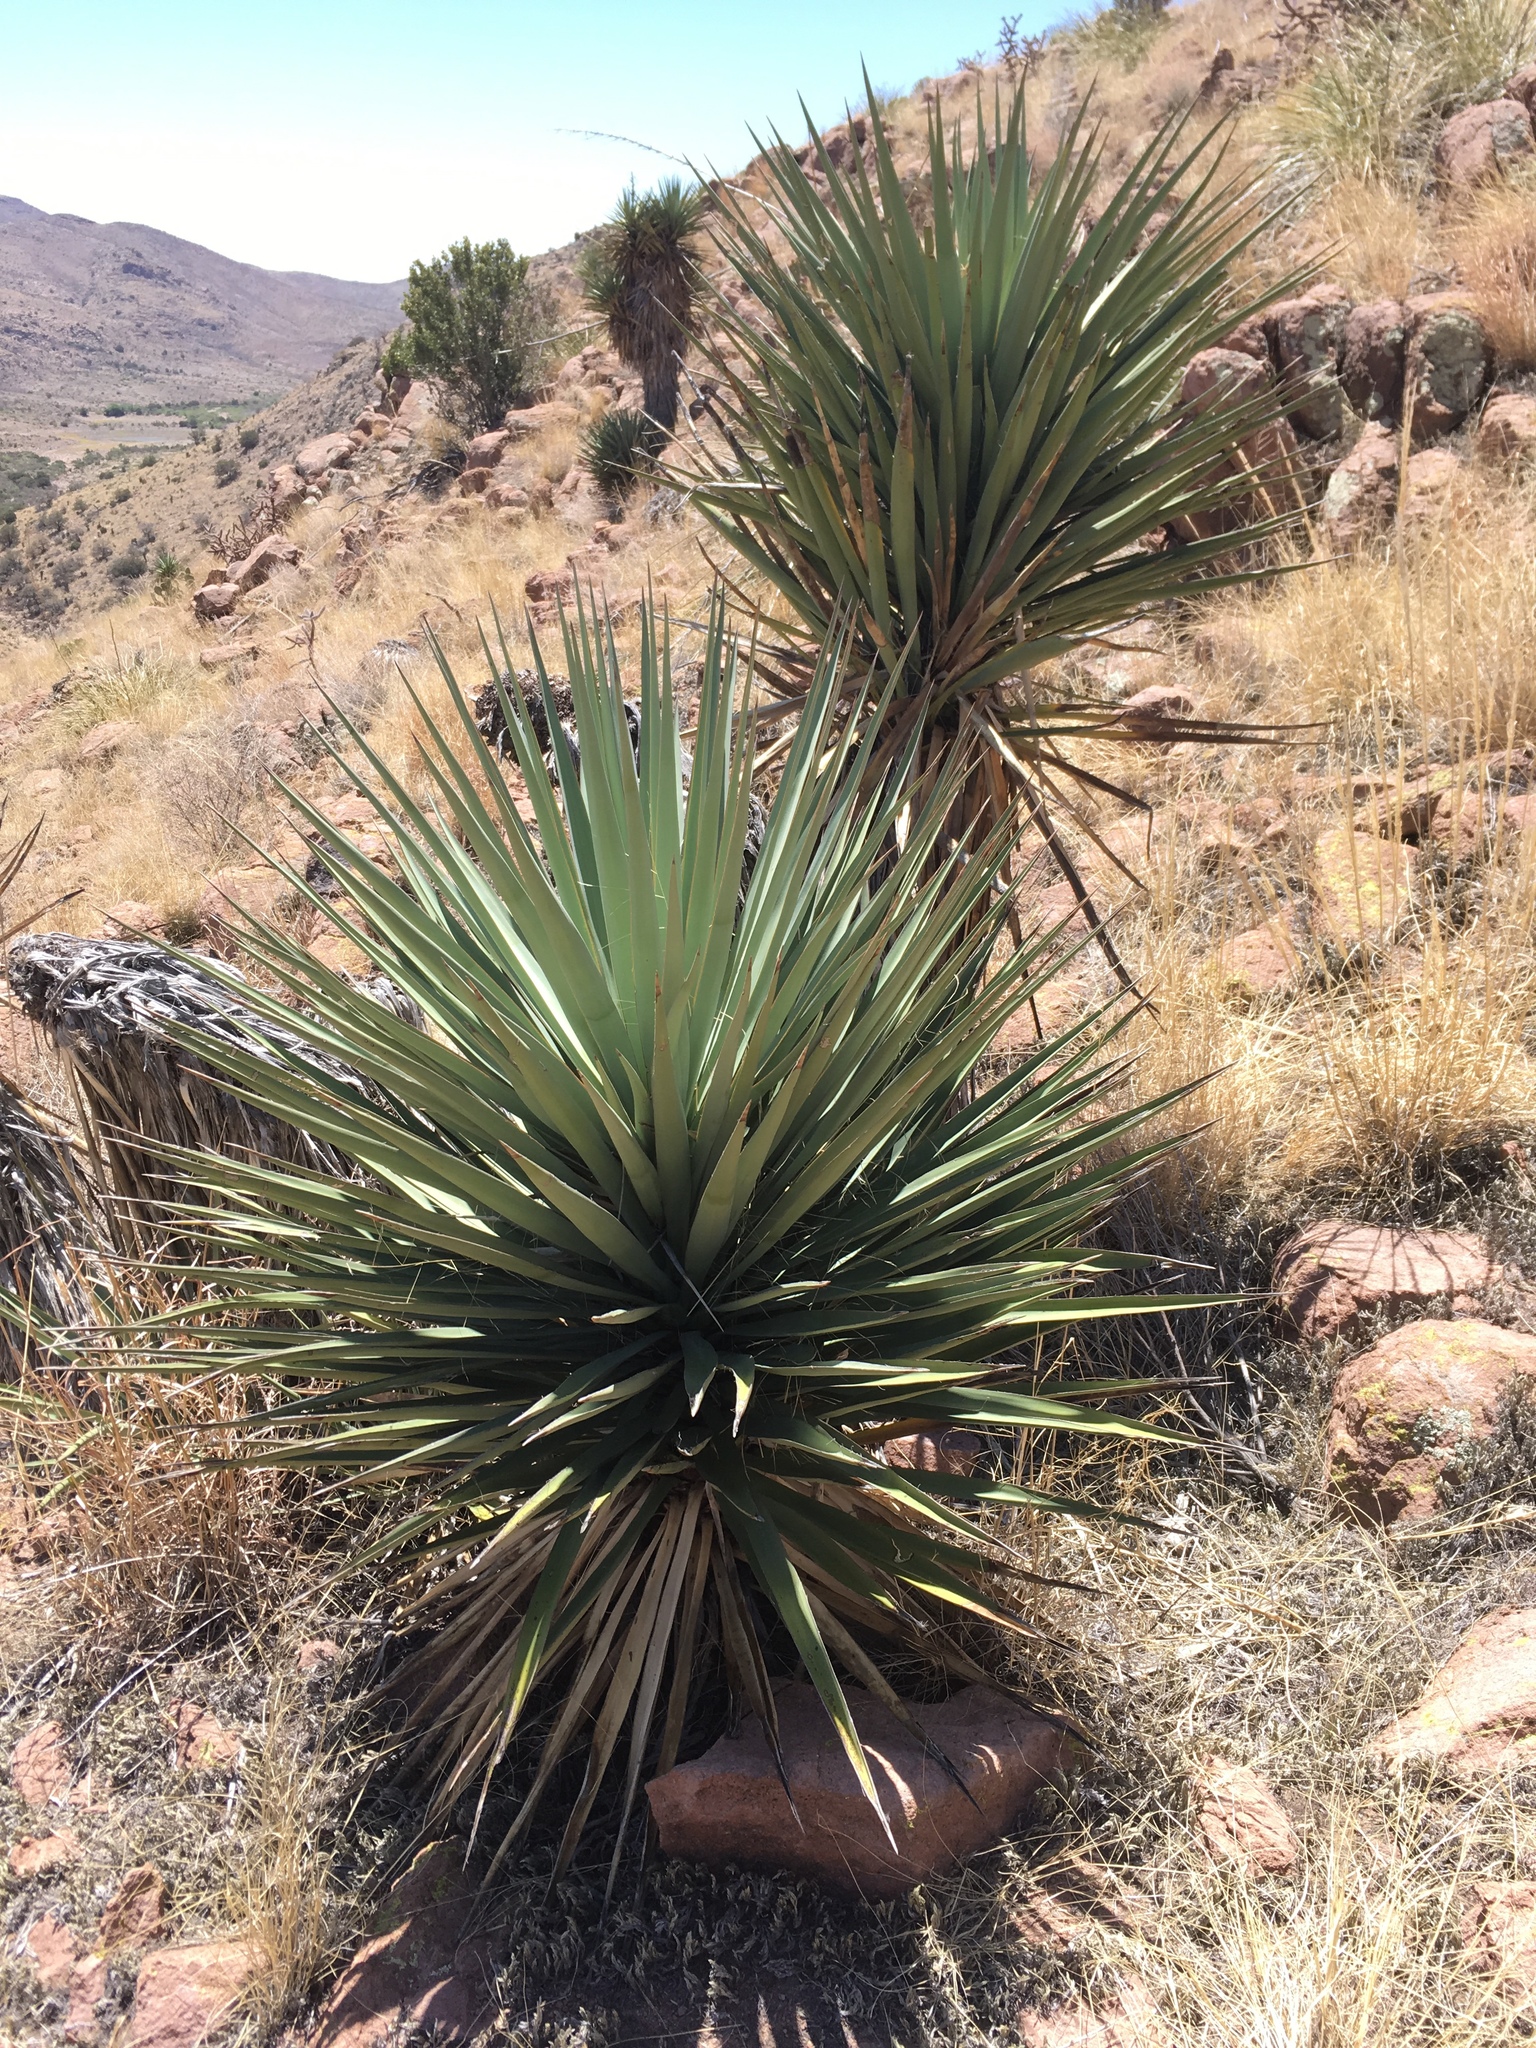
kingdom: Plantae
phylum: Tracheophyta
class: Liliopsida
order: Asparagales
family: Asparagaceae
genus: Yucca
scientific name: Yucca madrensis
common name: Hoary yucca
